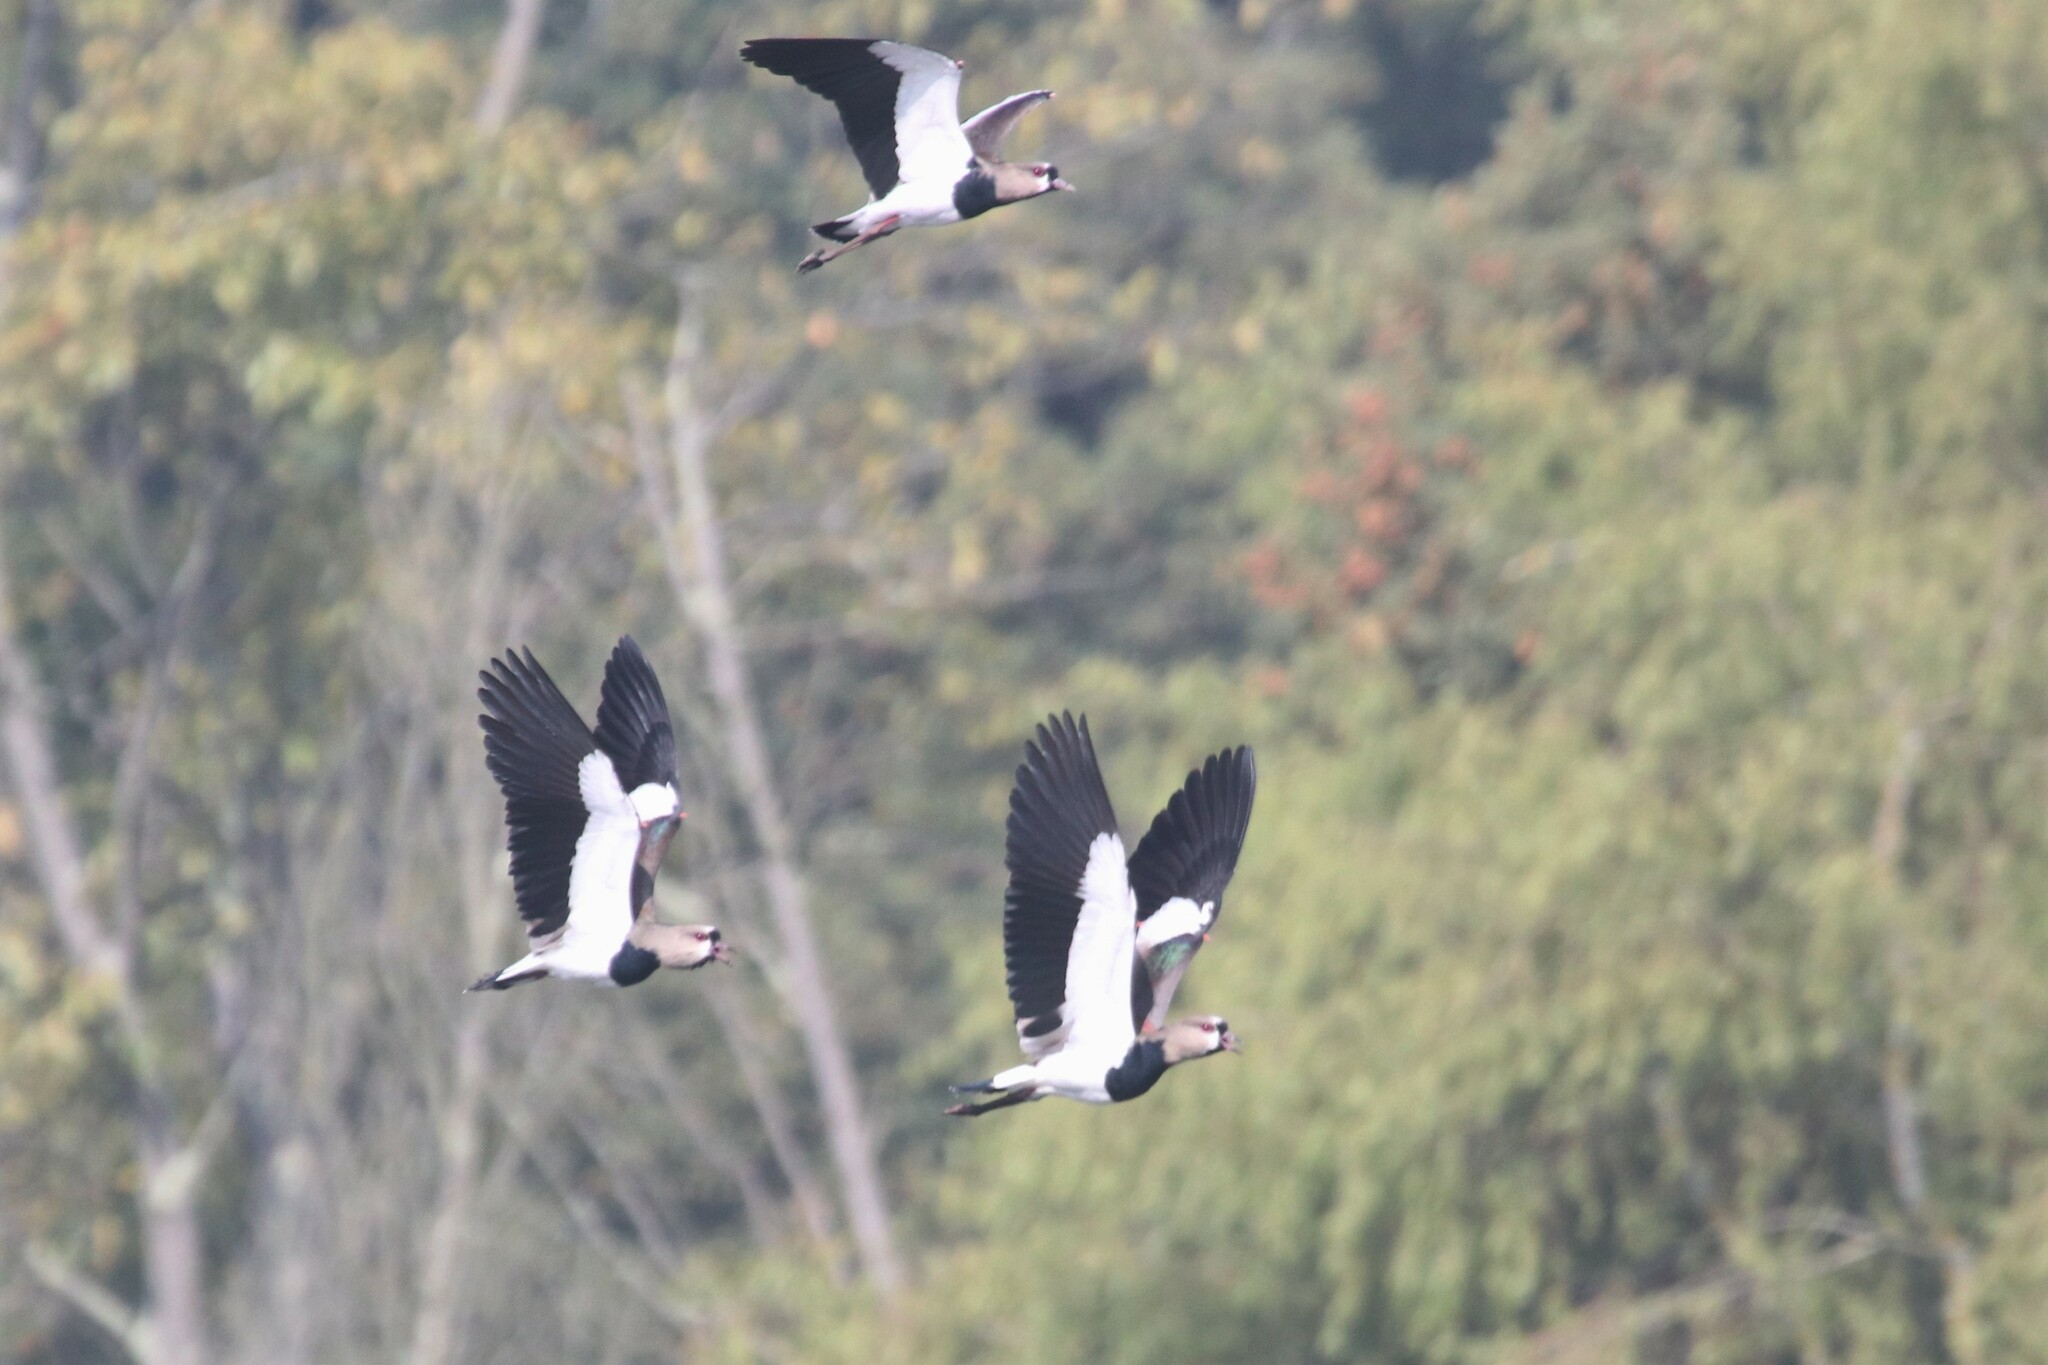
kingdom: Animalia
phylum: Chordata
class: Aves
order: Charadriiformes
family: Charadriidae
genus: Vanellus
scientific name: Vanellus chilensis
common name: Southern lapwing
